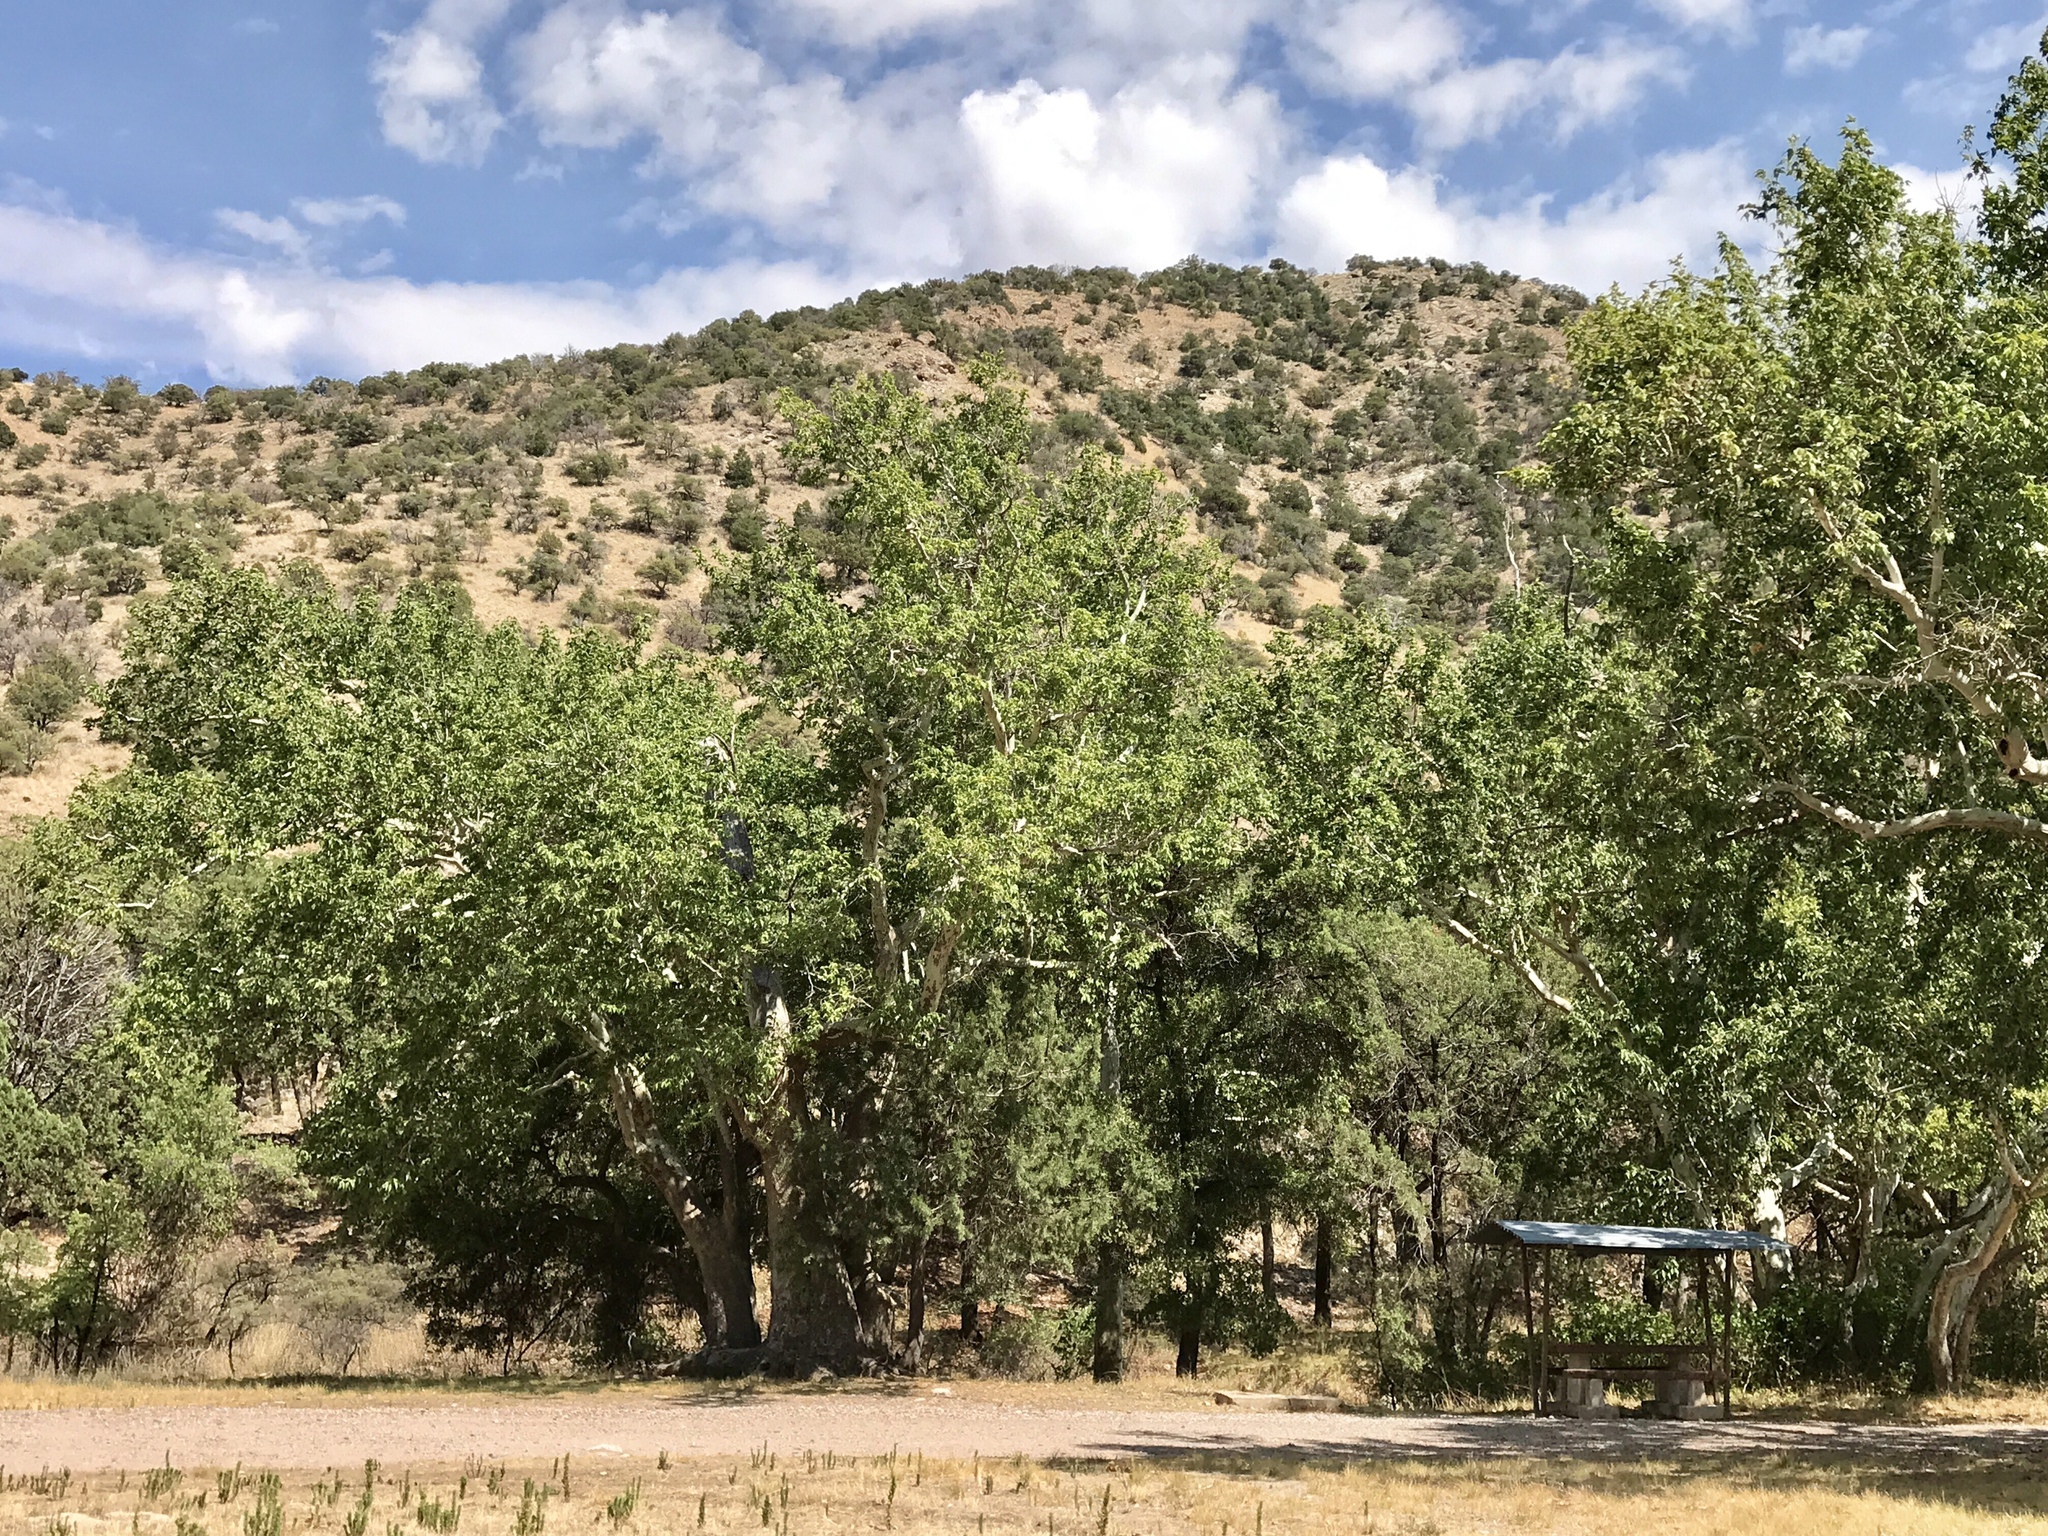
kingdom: Plantae
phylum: Tracheophyta
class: Magnoliopsida
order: Proteales
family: Platanaceae
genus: Platanus
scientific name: Platanus wrightii
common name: Arizona sycamore
